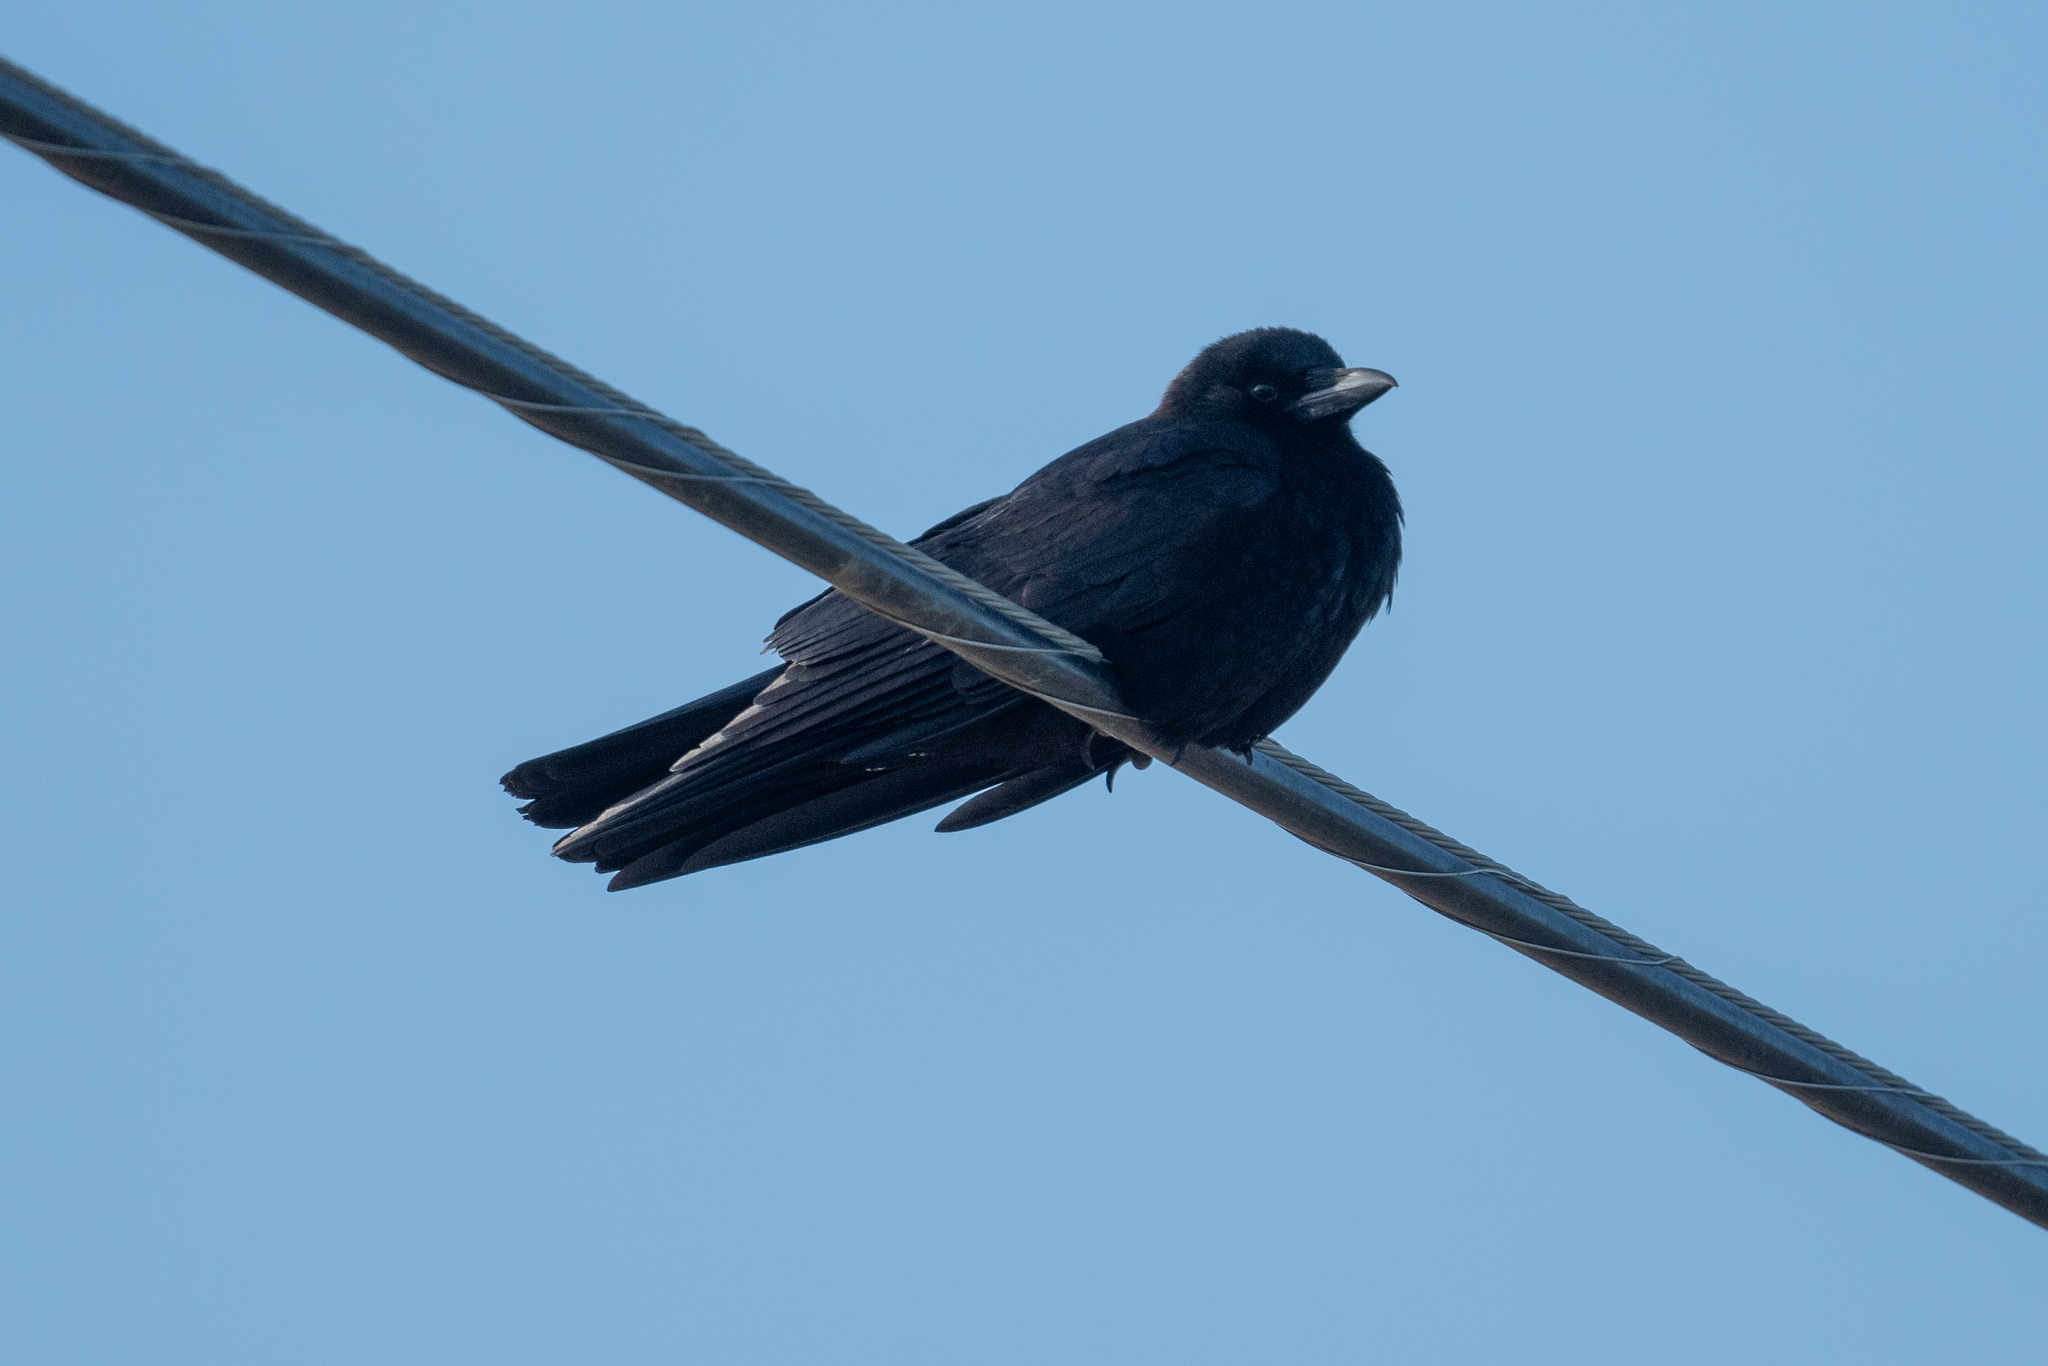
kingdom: Animalia
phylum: Chordata
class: Aves
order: Passeriformes
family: Corvidae
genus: Corvus
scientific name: Corvus corax
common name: Common raven
